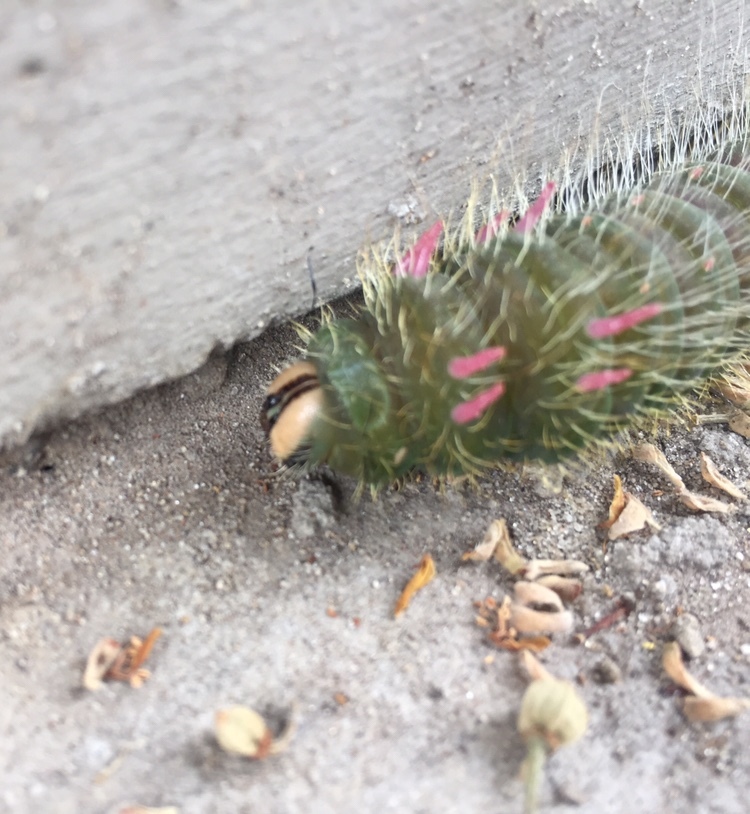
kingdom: Animalia
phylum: Arthropoda
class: Insecta
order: Lepidoptera
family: Saturniidae
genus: Eacles
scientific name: Eacles imperialis
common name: Imperial moth
